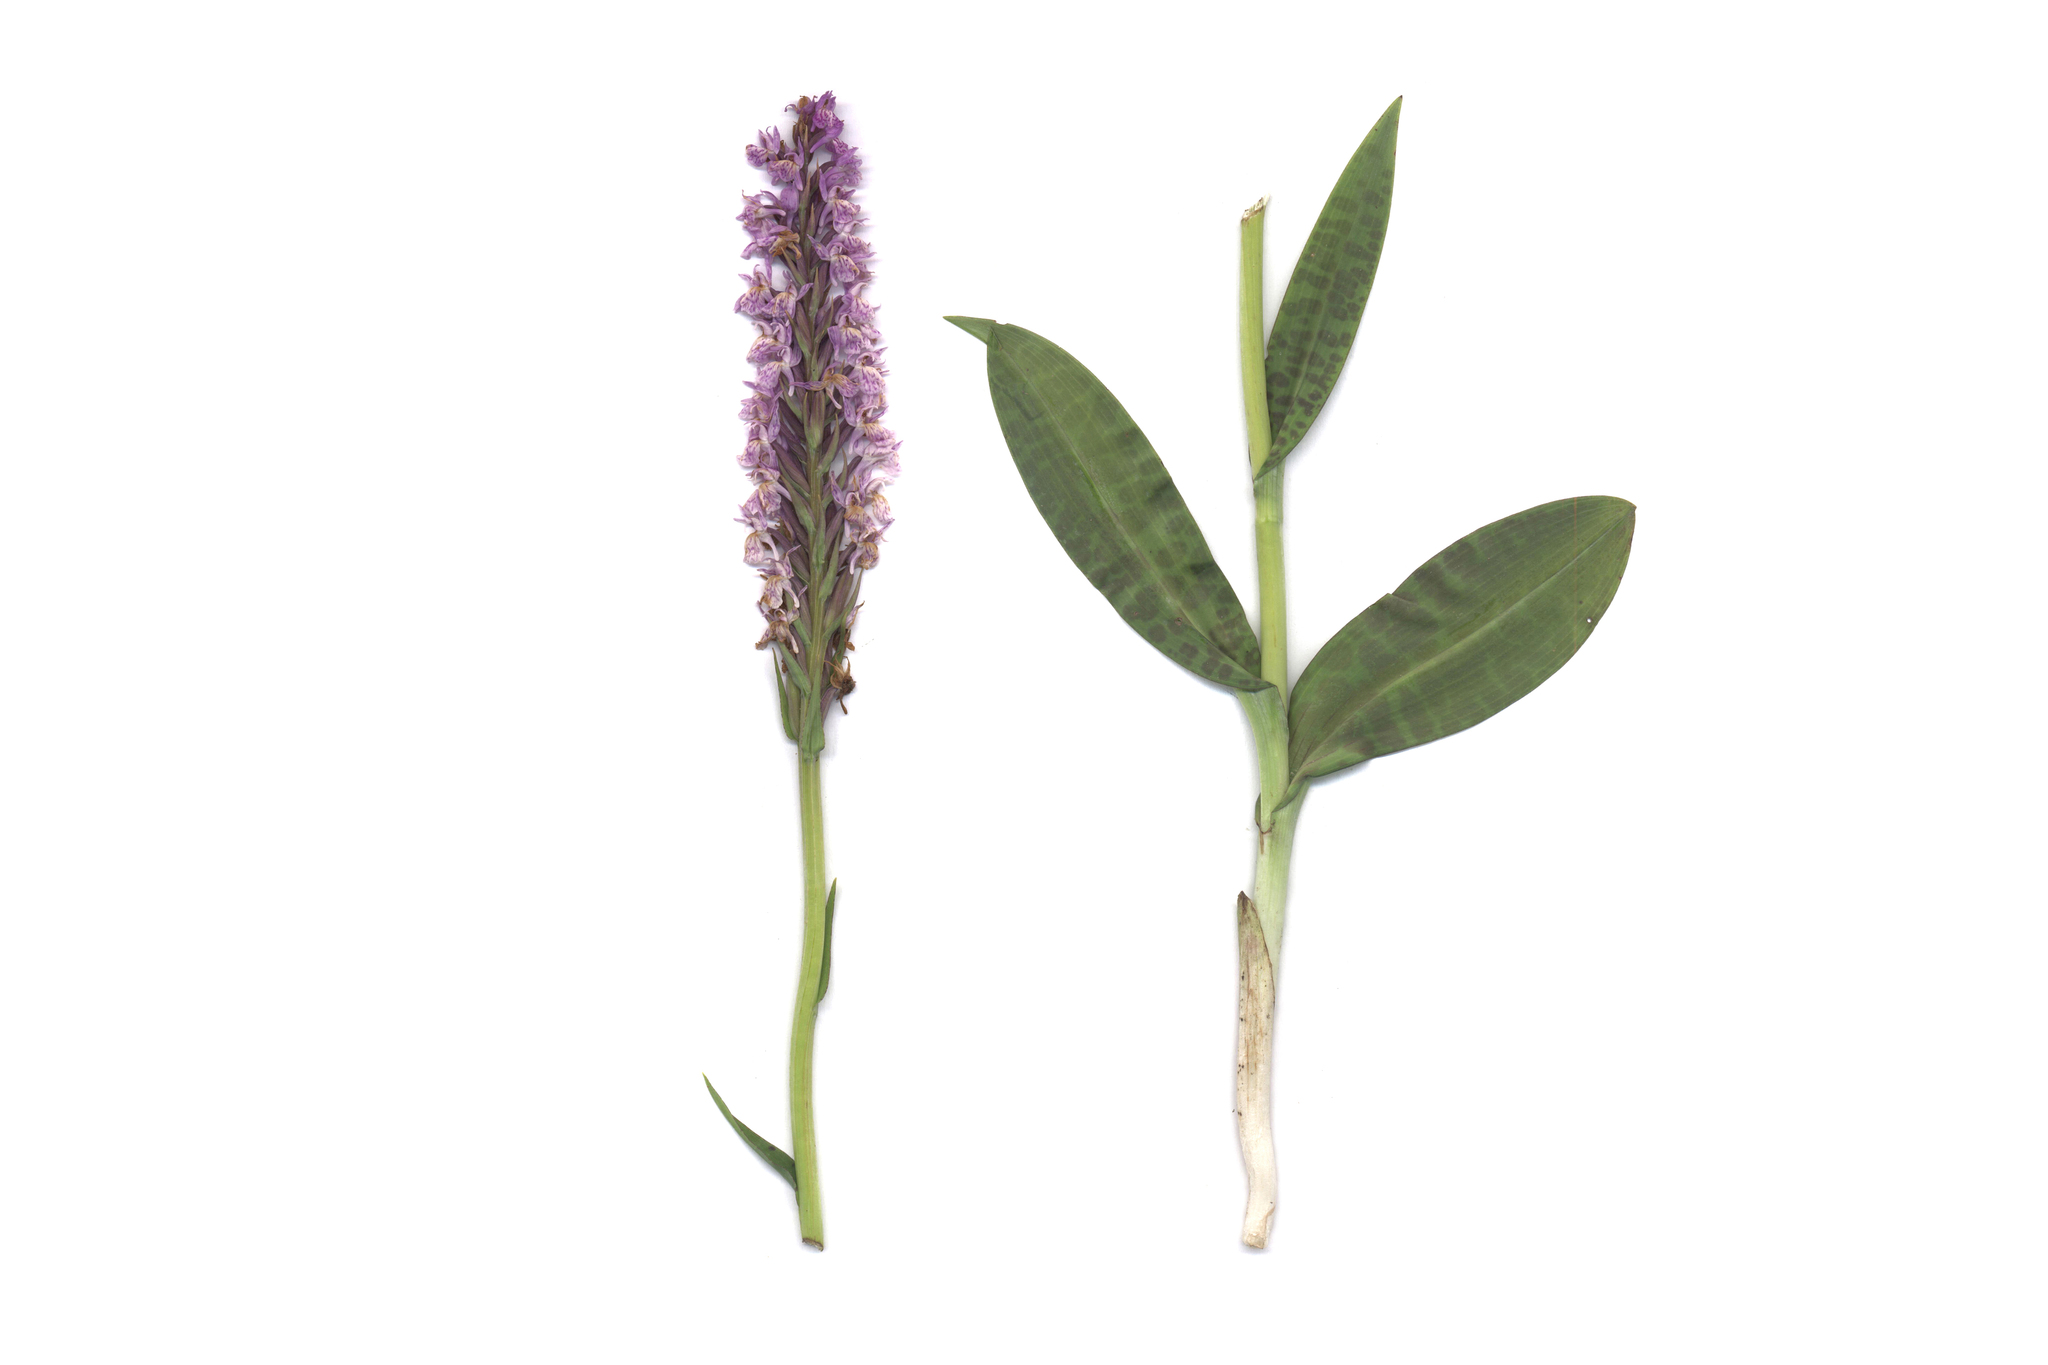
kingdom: Plantae
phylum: Tracheophyta
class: Liliopsida
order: Asparagales
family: Orchidaceae
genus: Dactylorhiza
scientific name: Dactylorhiza maculata
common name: Heath spotted-orchid
